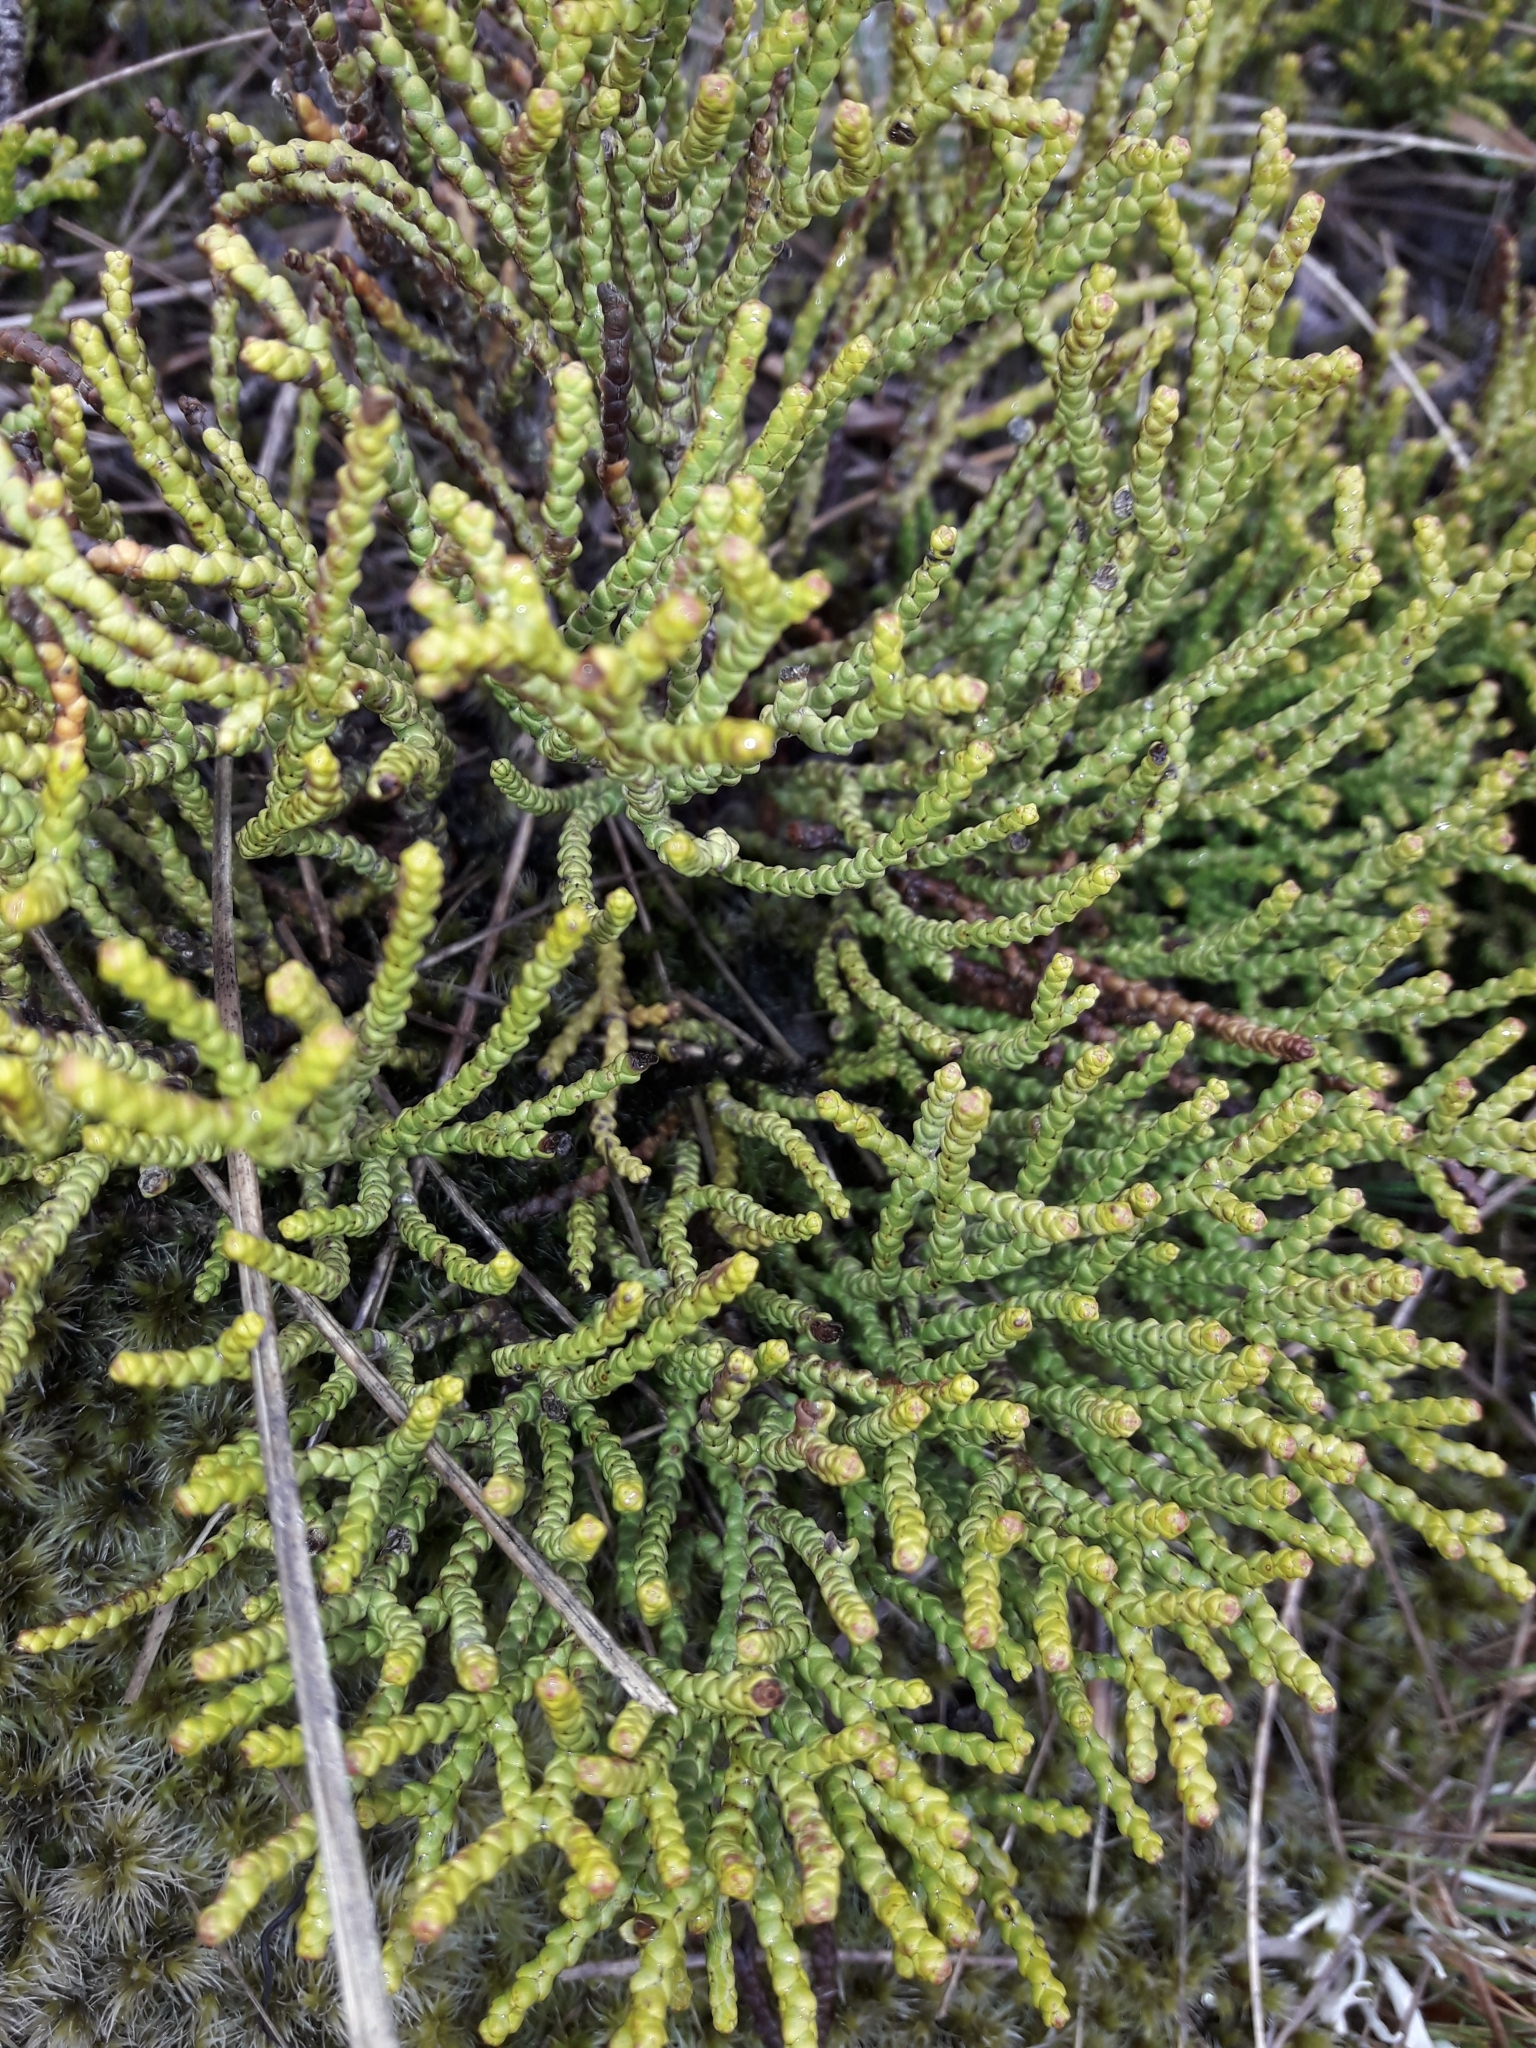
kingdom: Plantae
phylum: Tracheophyta
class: Magnoliopsida
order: Lamiales
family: Plantaginaceae
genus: Veronica
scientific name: Veronica propinqua
